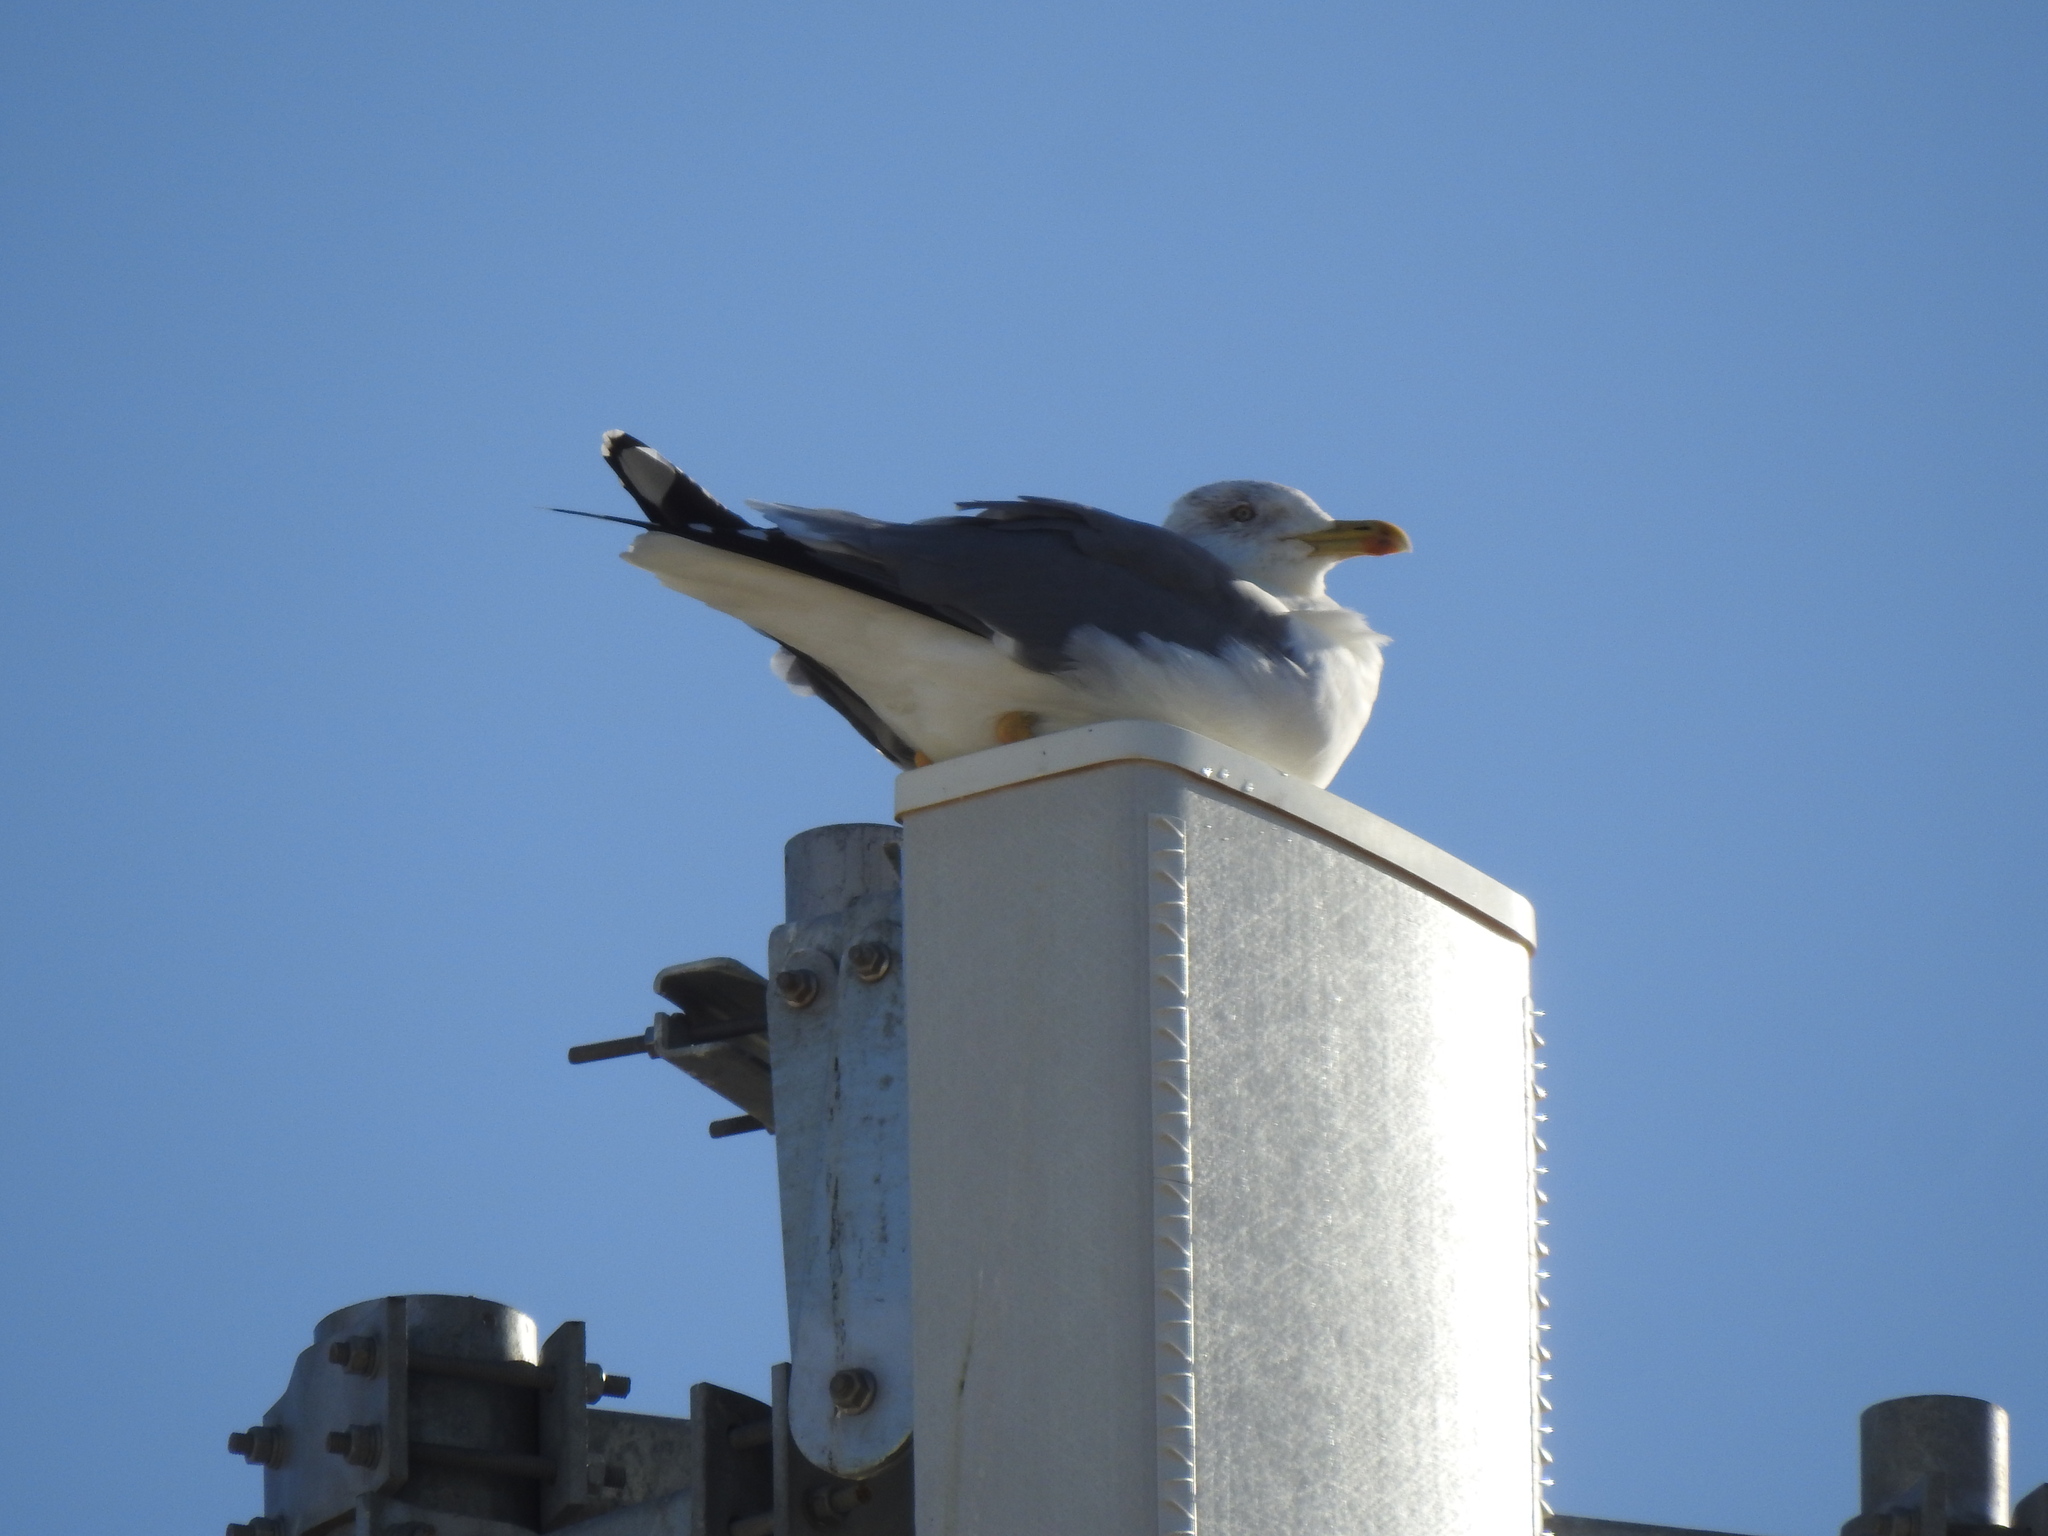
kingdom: Animalia
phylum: Chordata
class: Aves
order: Charadriiformes
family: Laridae
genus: Larus
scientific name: Larus michahellis
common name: Yellow-legged gull
